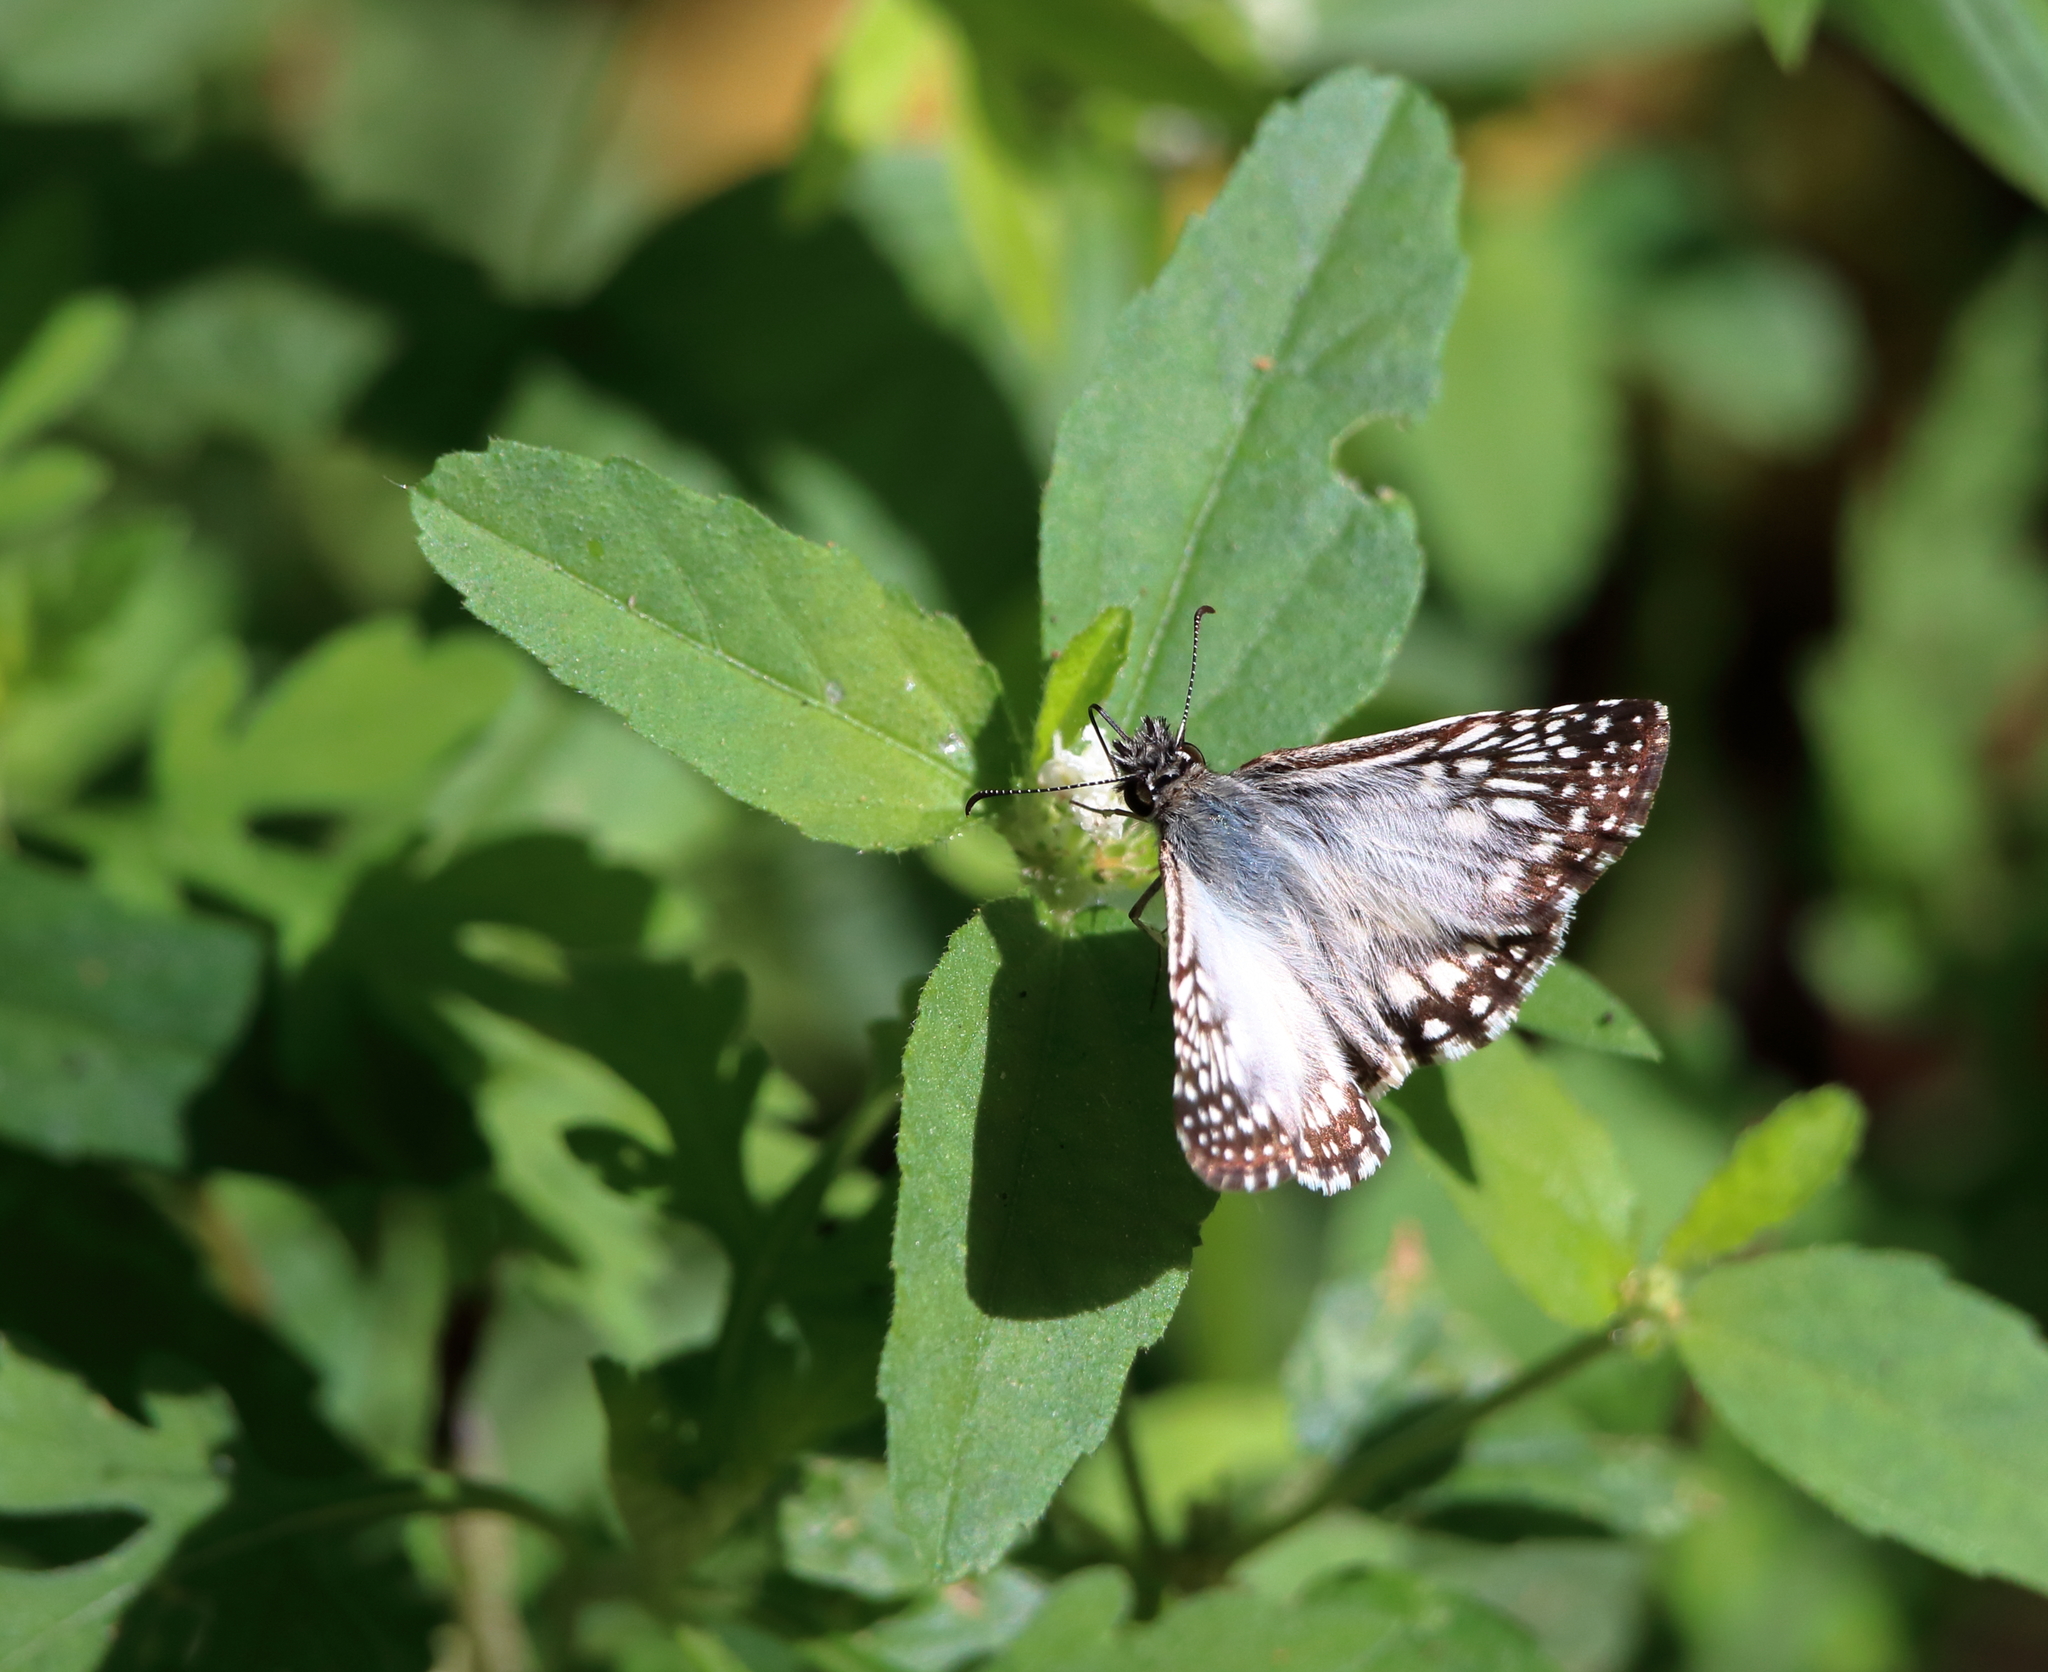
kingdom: Animalia
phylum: Arthropoda
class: Insecta
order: Lepidoptera
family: Hesperiidae
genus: Pyrgus
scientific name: Pyrgus oileus
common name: Tropical checkered-skipper
